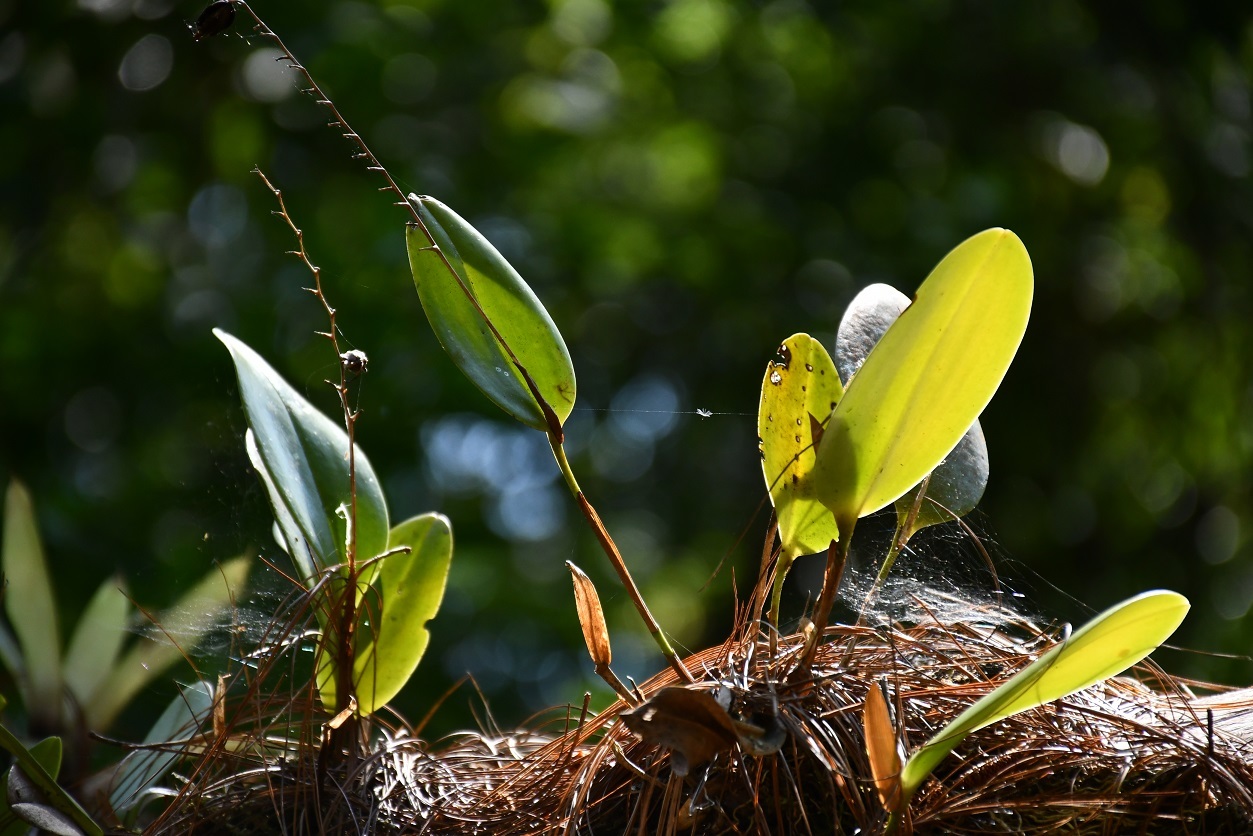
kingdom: Plantae
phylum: Tracheophyta
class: Liliopsida
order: Asparagales
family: Orchidaceae
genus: Stelis
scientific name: Stelis megachlamys
